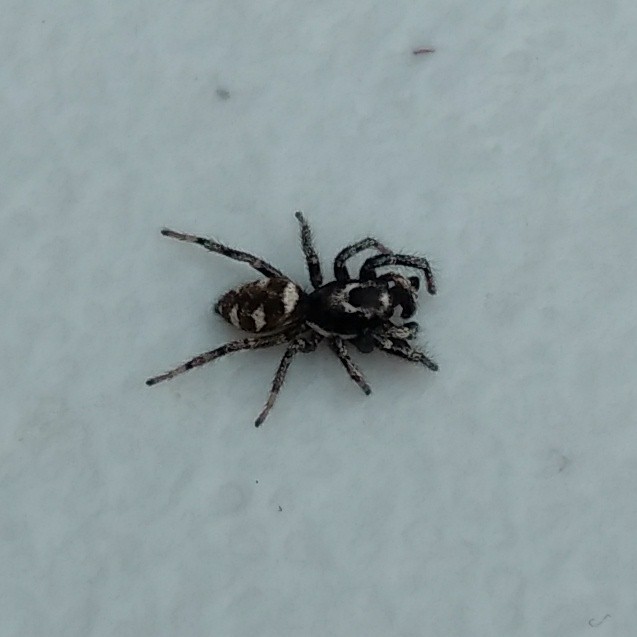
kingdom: Animalia
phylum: Arthropoda
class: Arachnida
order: Araneae
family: Salticidae
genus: Salticus
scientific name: Salticus scenicus
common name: Zebra jumper
